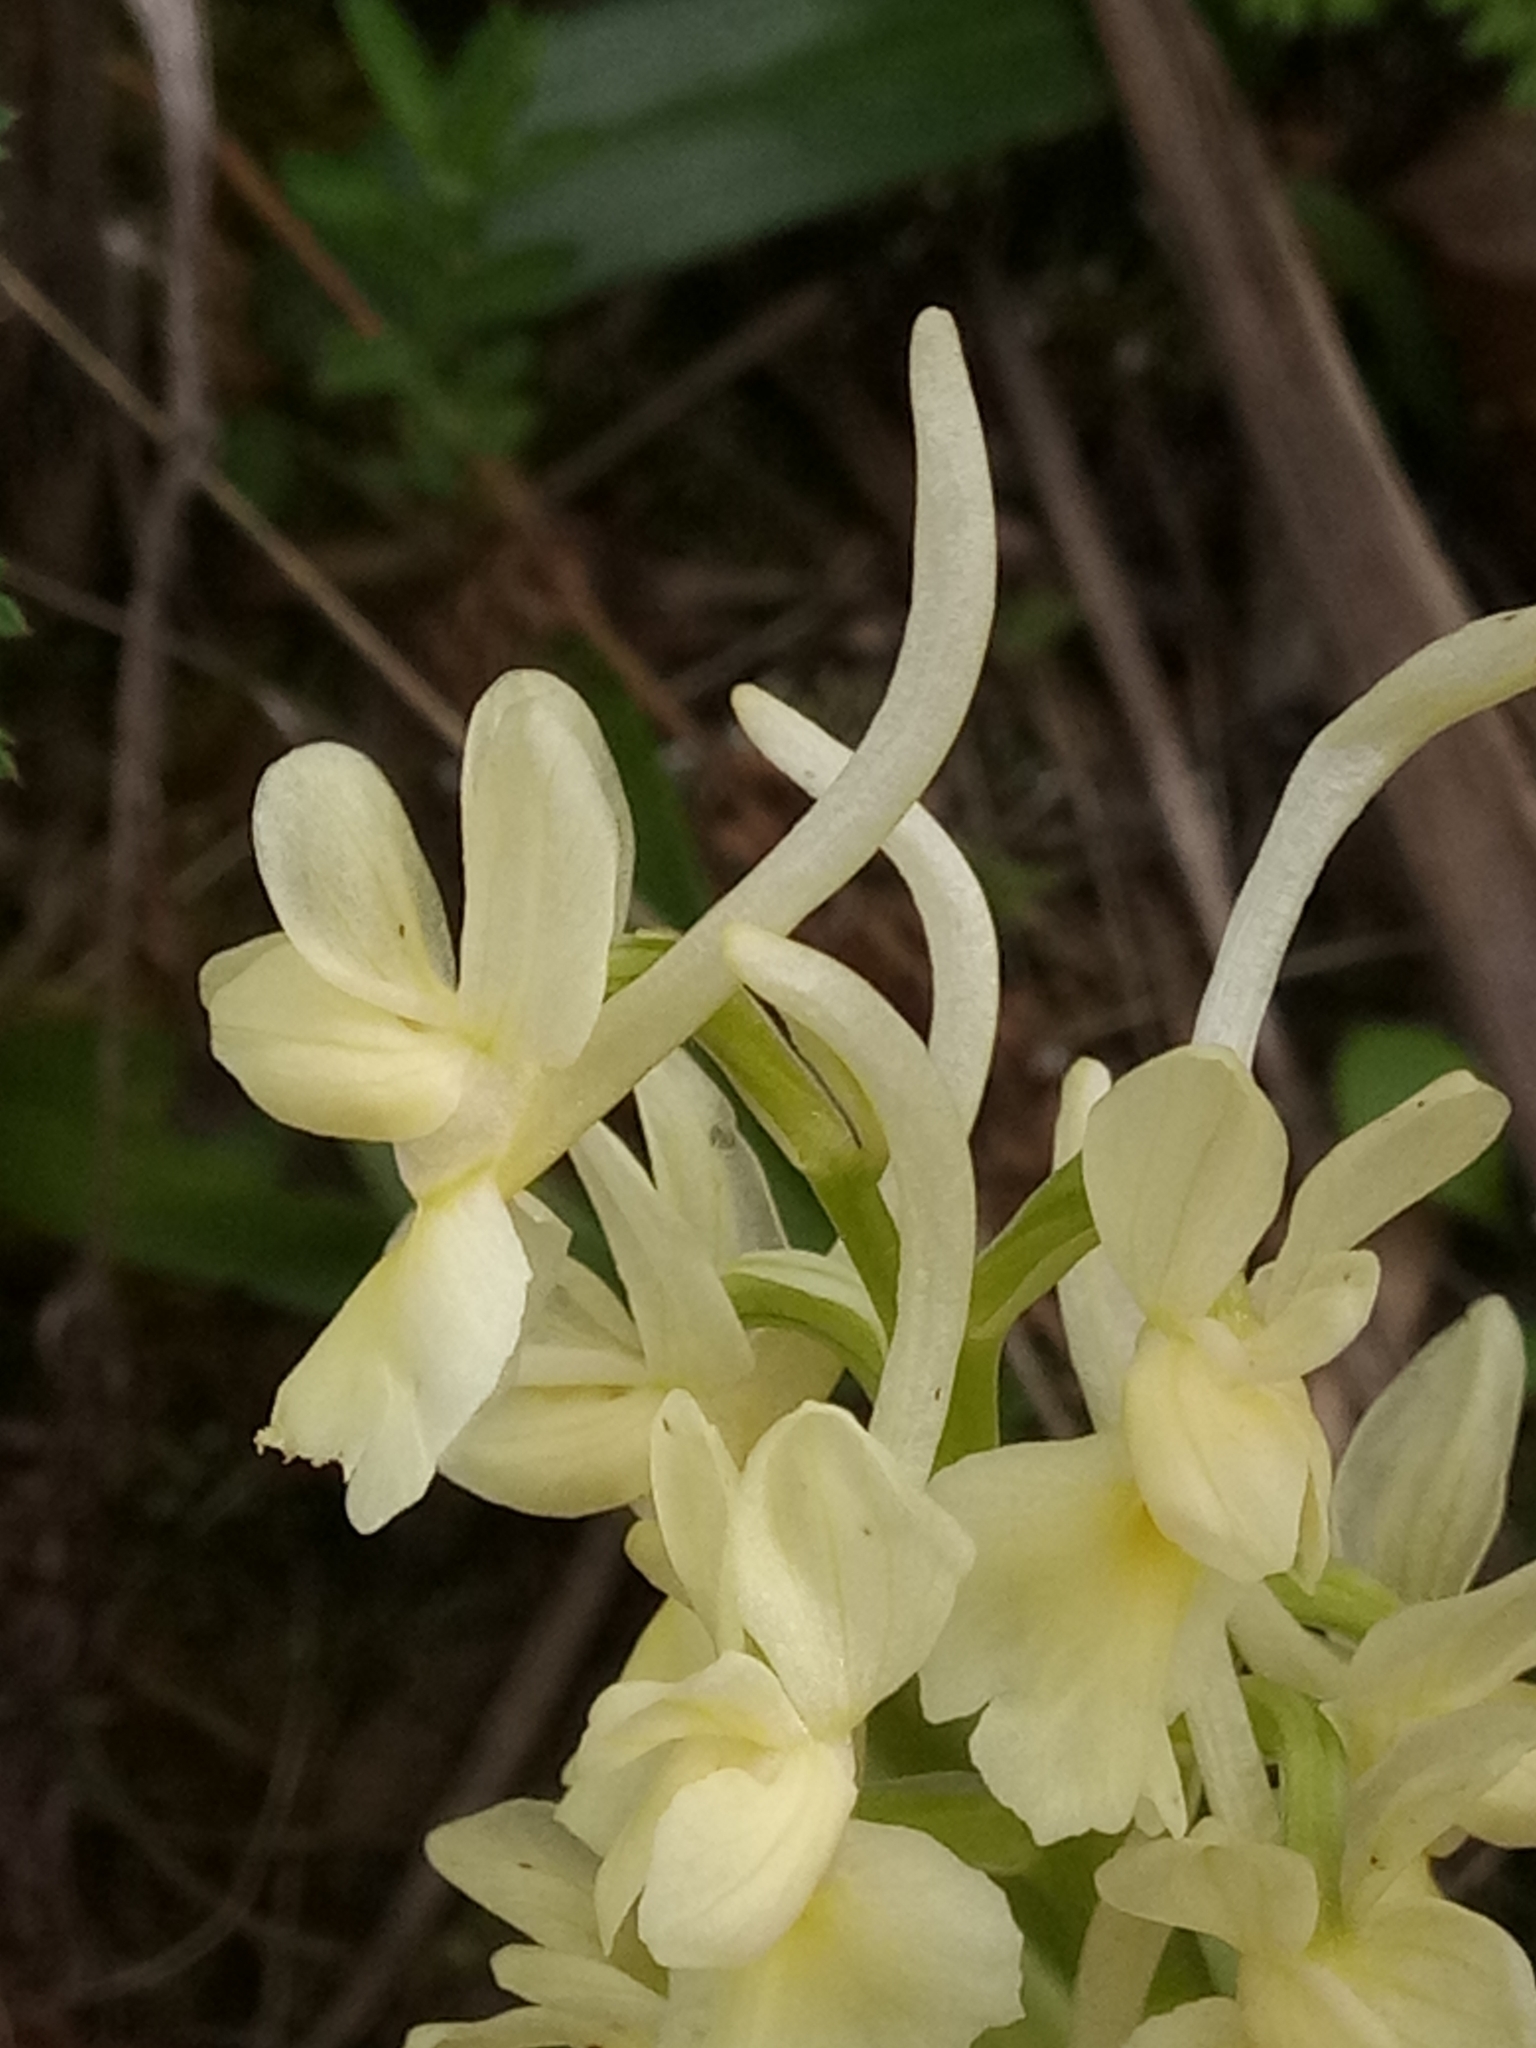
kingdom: Plantae
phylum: Tracheophyta
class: Liliopsida
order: Asparagales
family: Orchidaceae
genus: Orchis
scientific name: Orchis laeta
